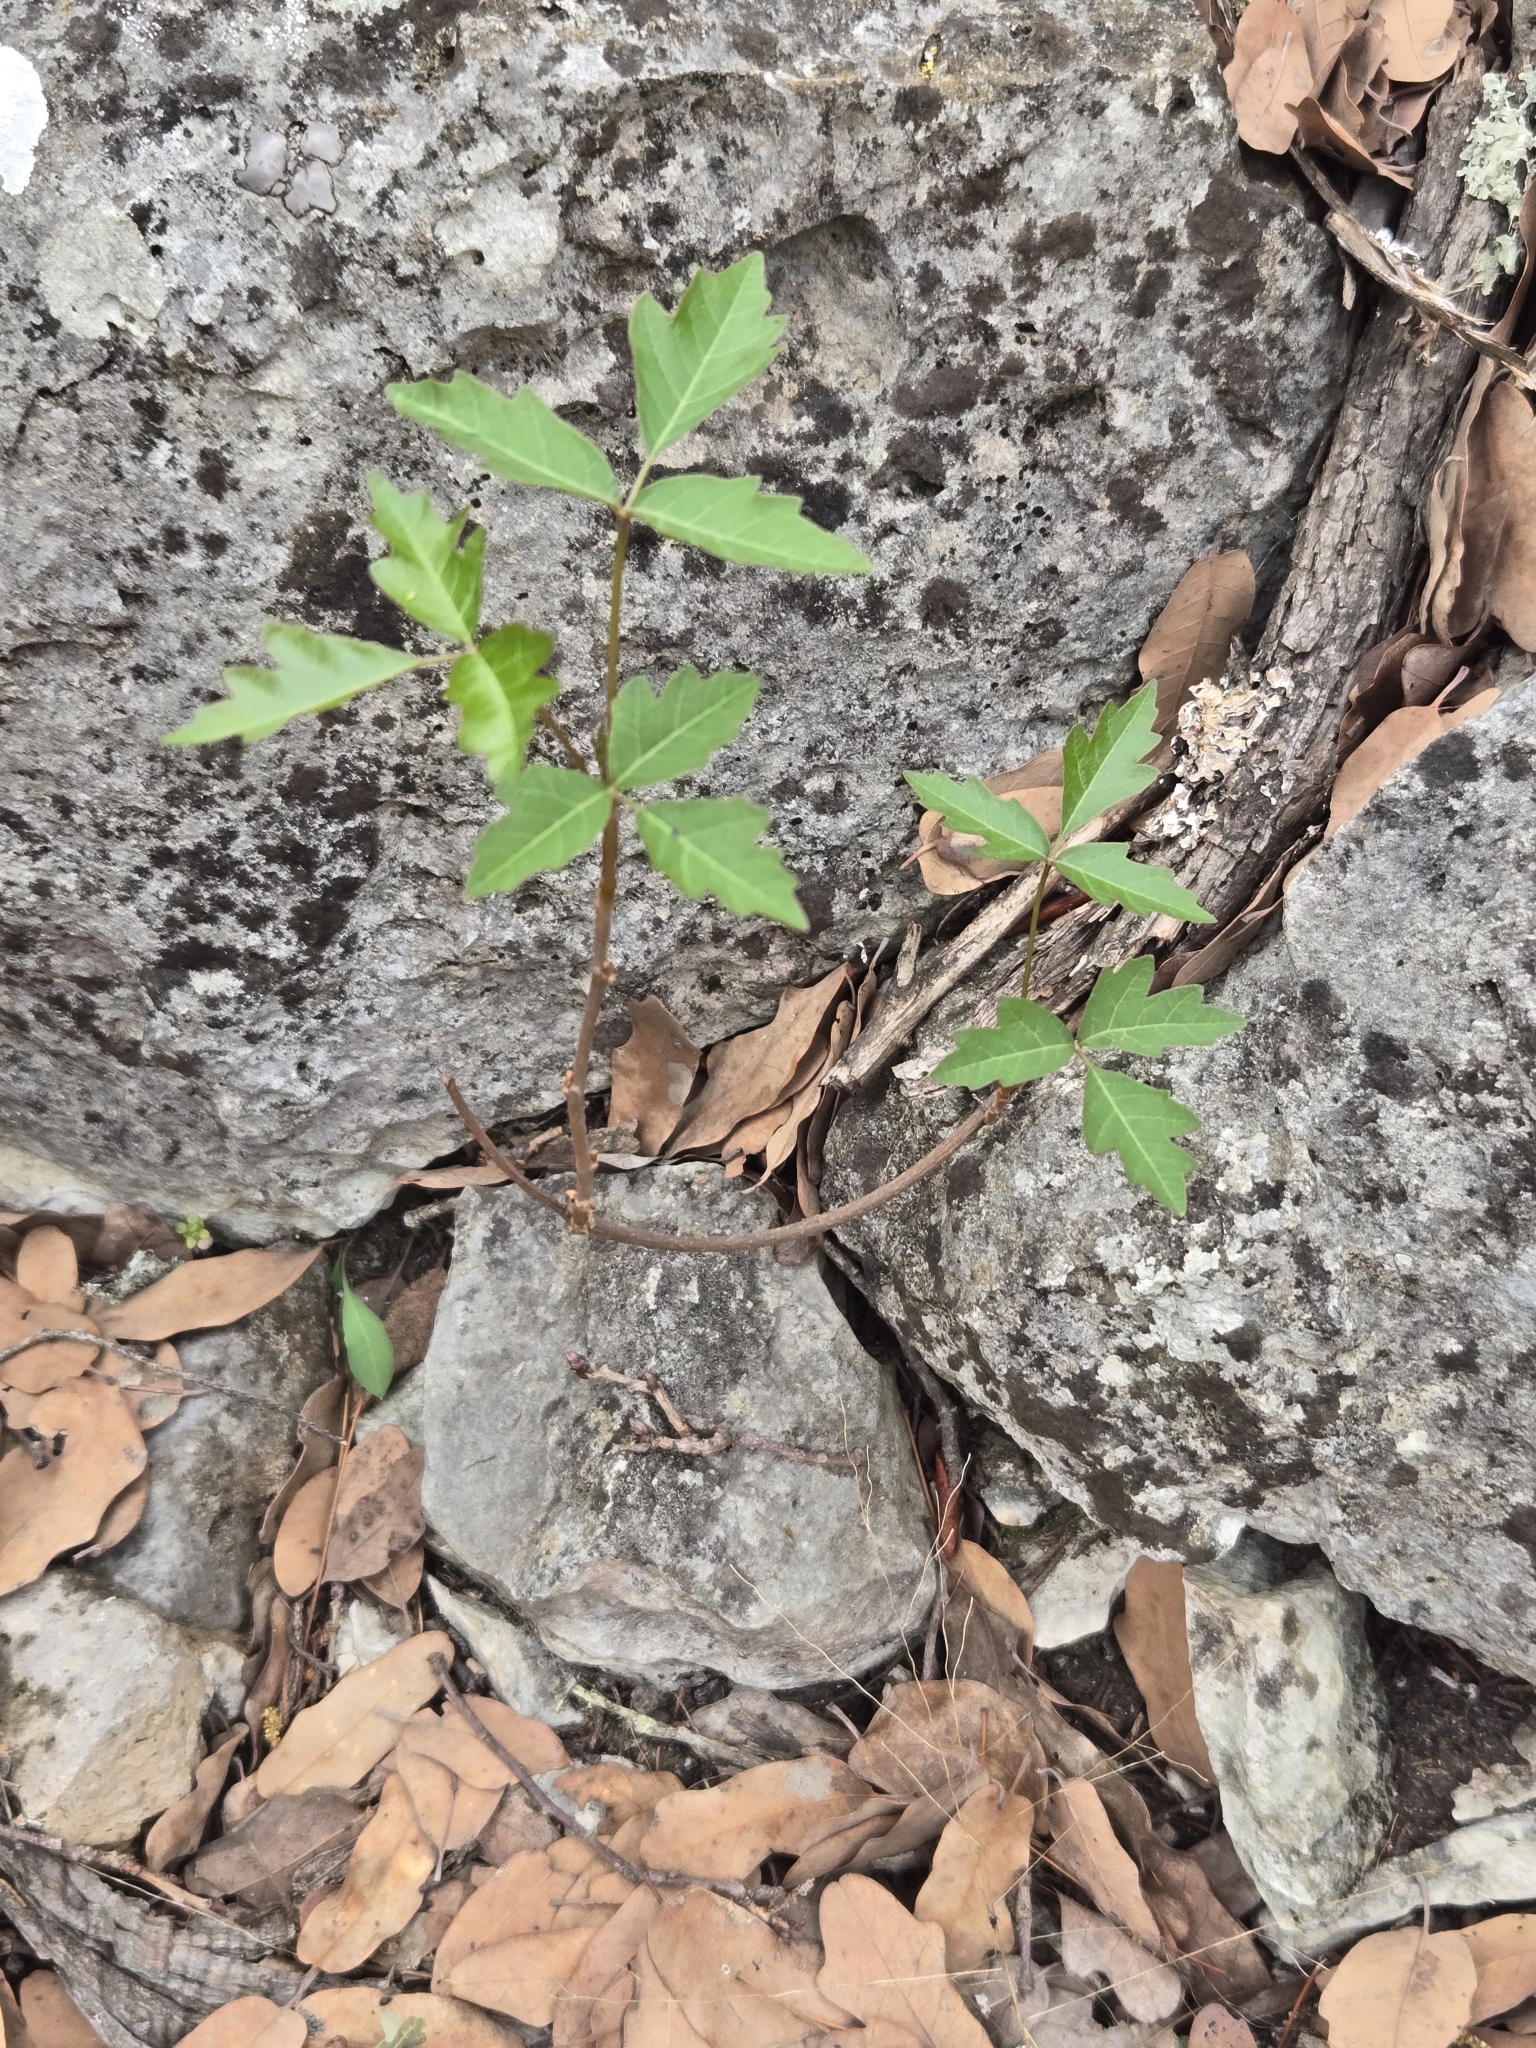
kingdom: Plantae
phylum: Tracheophyta
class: Magnoliopsida
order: Sapindales
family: Anacardiaceae
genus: Toxicodendron
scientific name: Toxicodendron radicans
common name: Poison ivy
